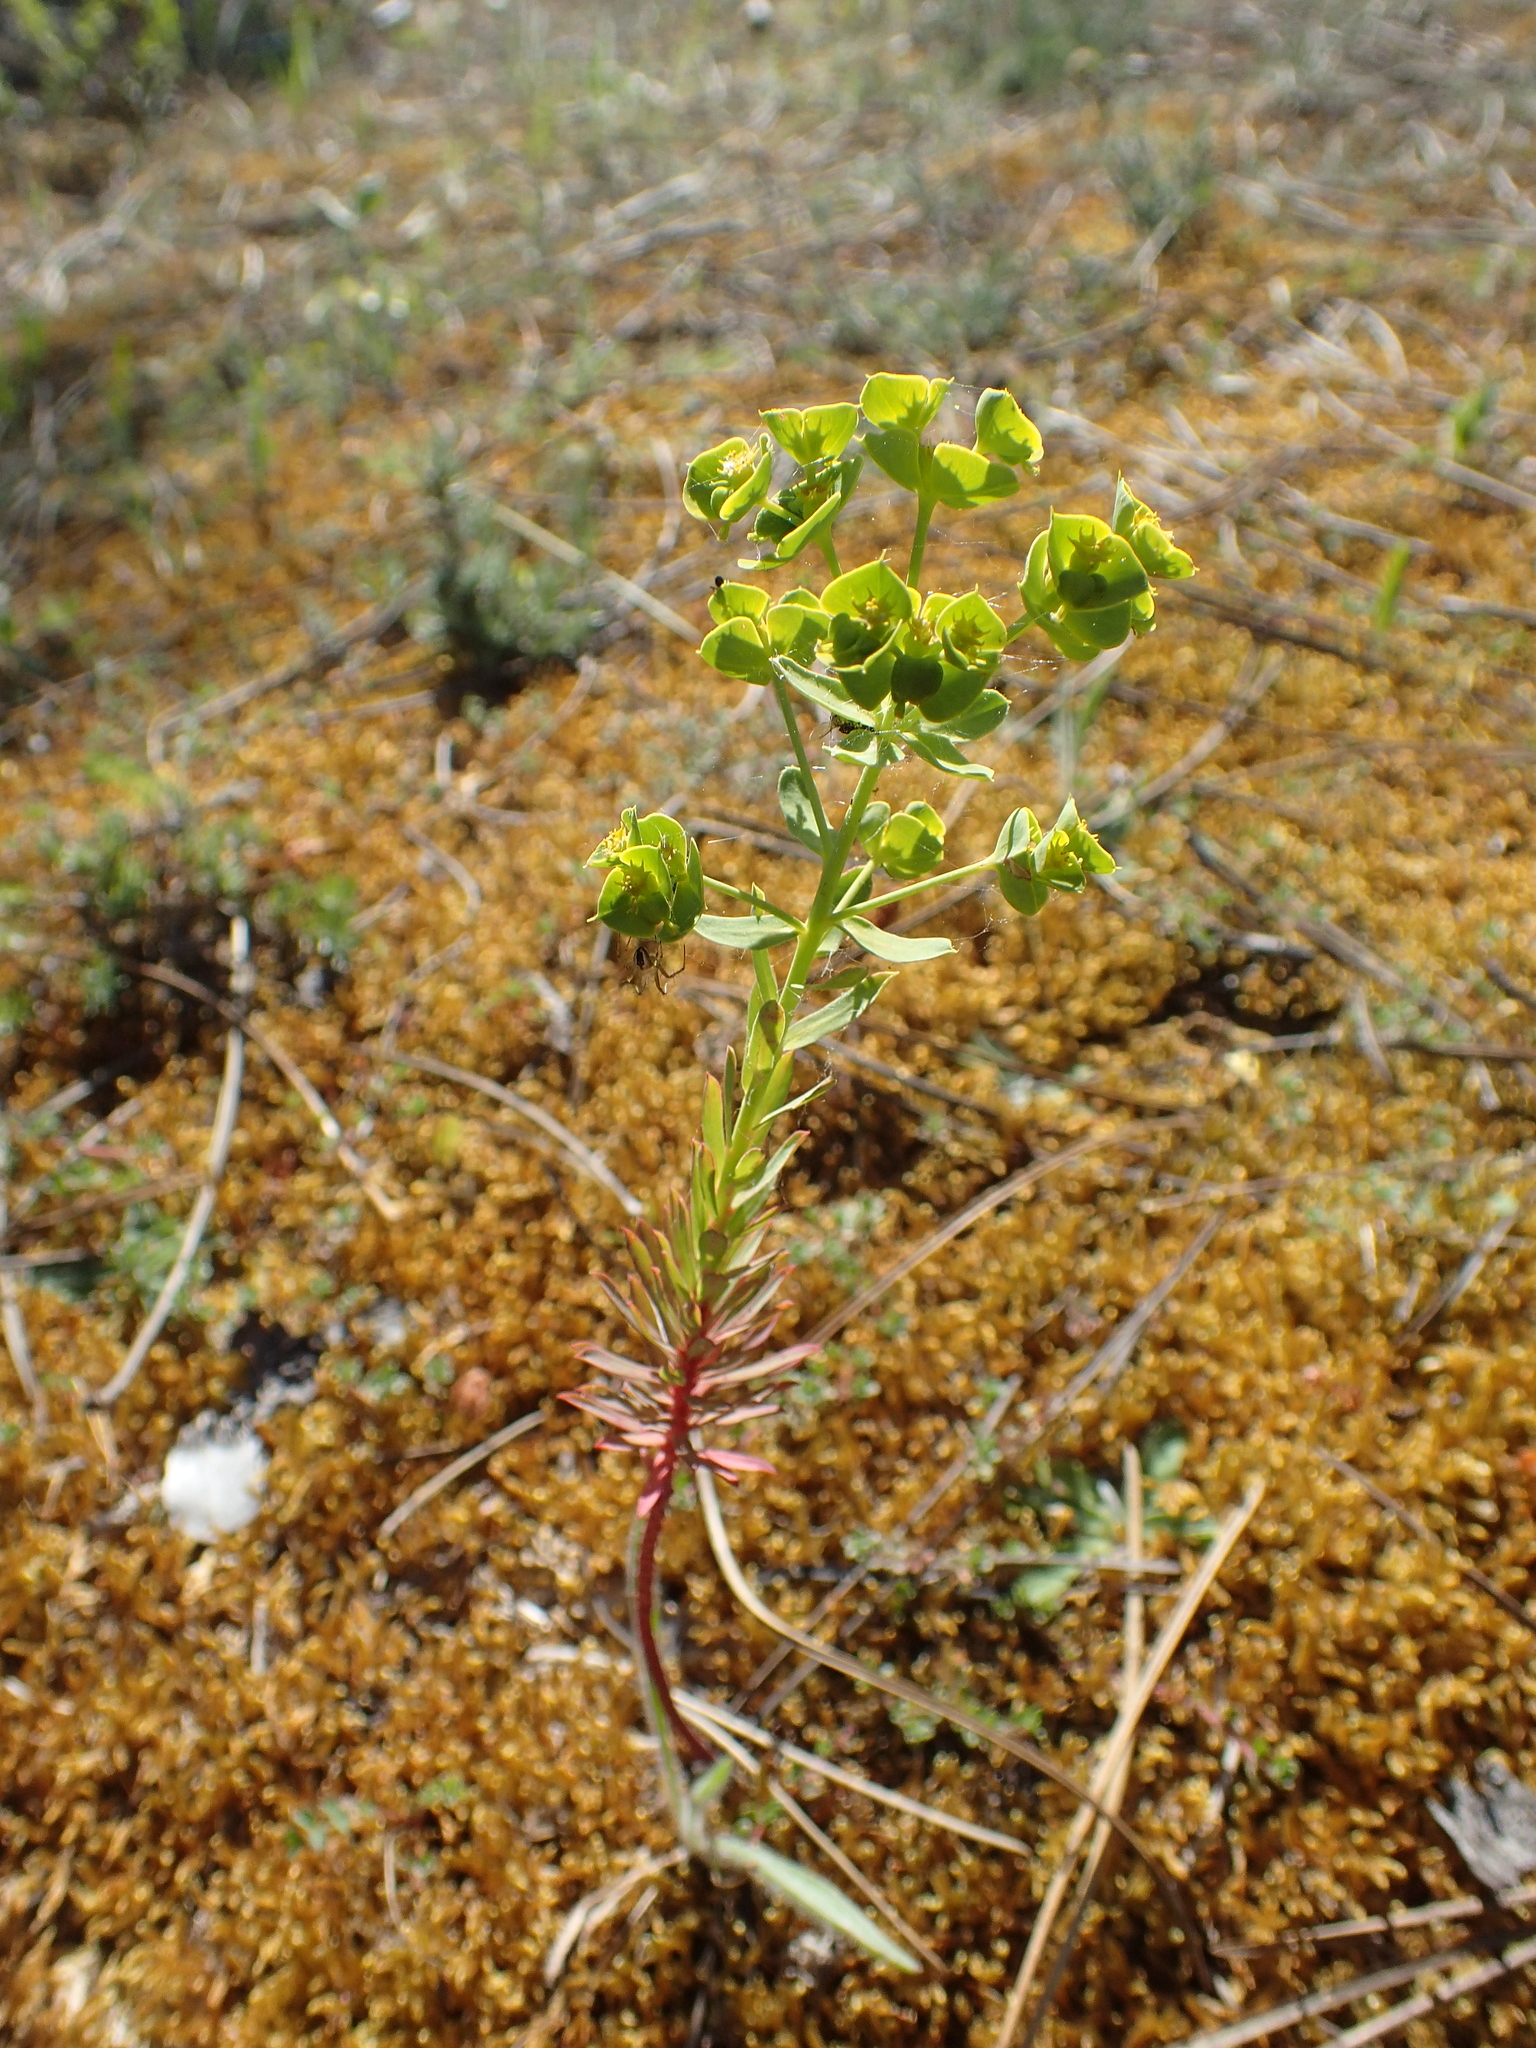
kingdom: Plantae
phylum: Tracheophyta
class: Magnoliopsida
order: Malpighiales
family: Euphorbiaceae
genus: Euphorbia
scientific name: Euphorbia portlandica
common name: Portland spurge
